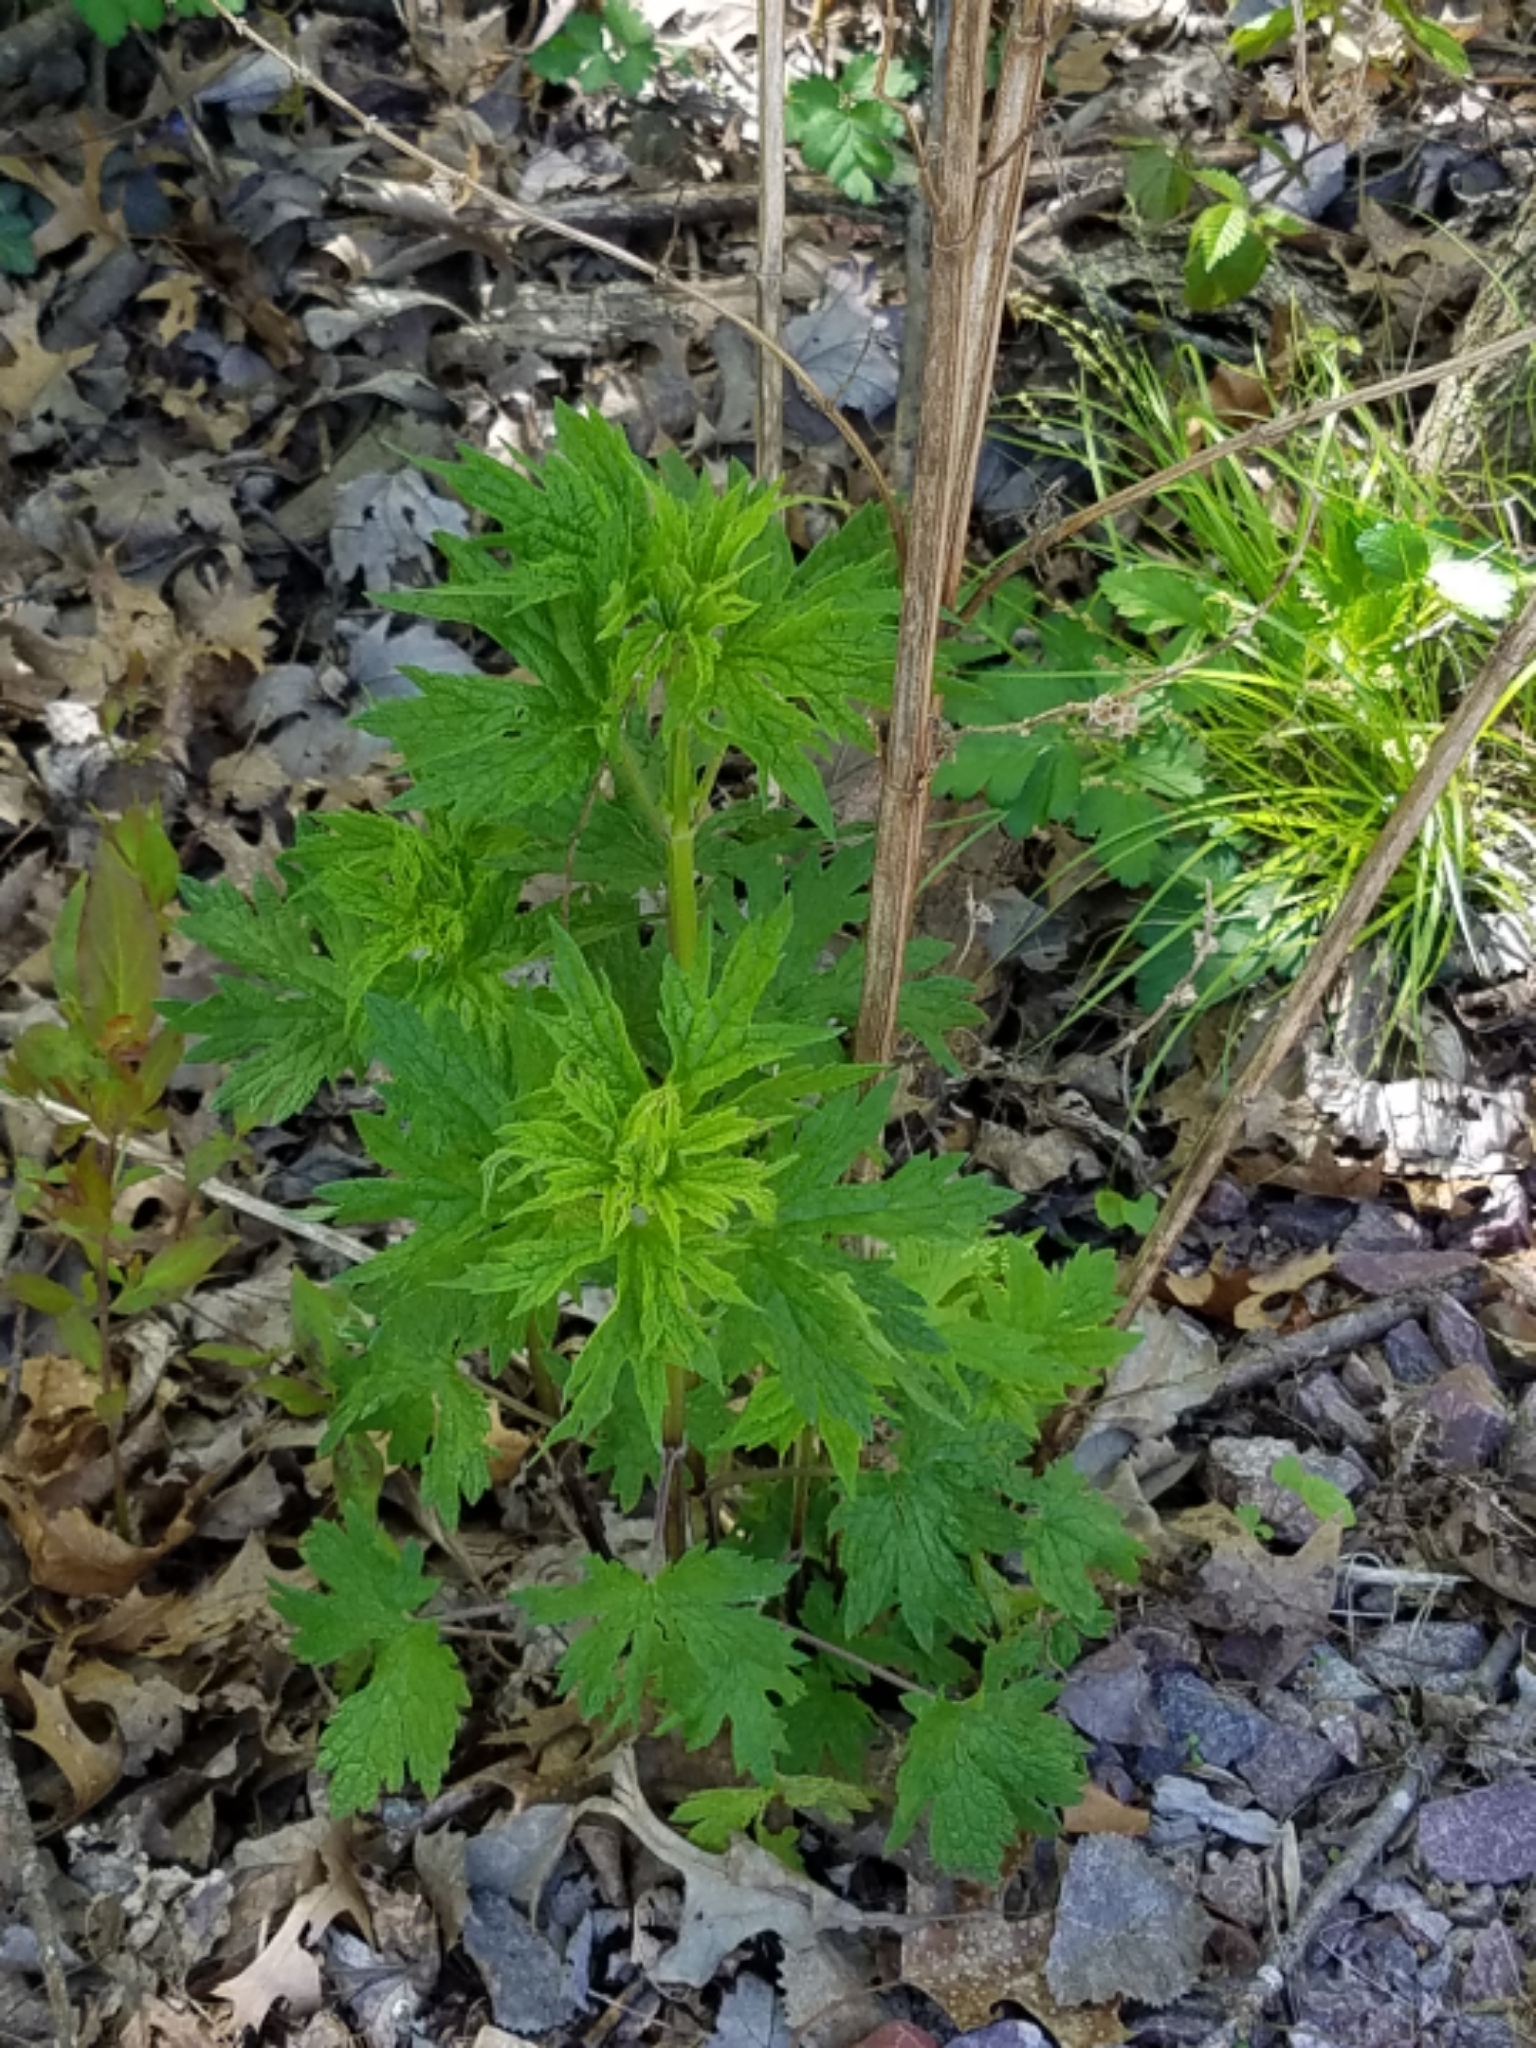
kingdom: Plantae
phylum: Tracheophyta
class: Magnoliopsida
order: Lamiales
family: Lamiaceae
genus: Leonurus
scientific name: Leonurus cardiaca
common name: Motherwort
